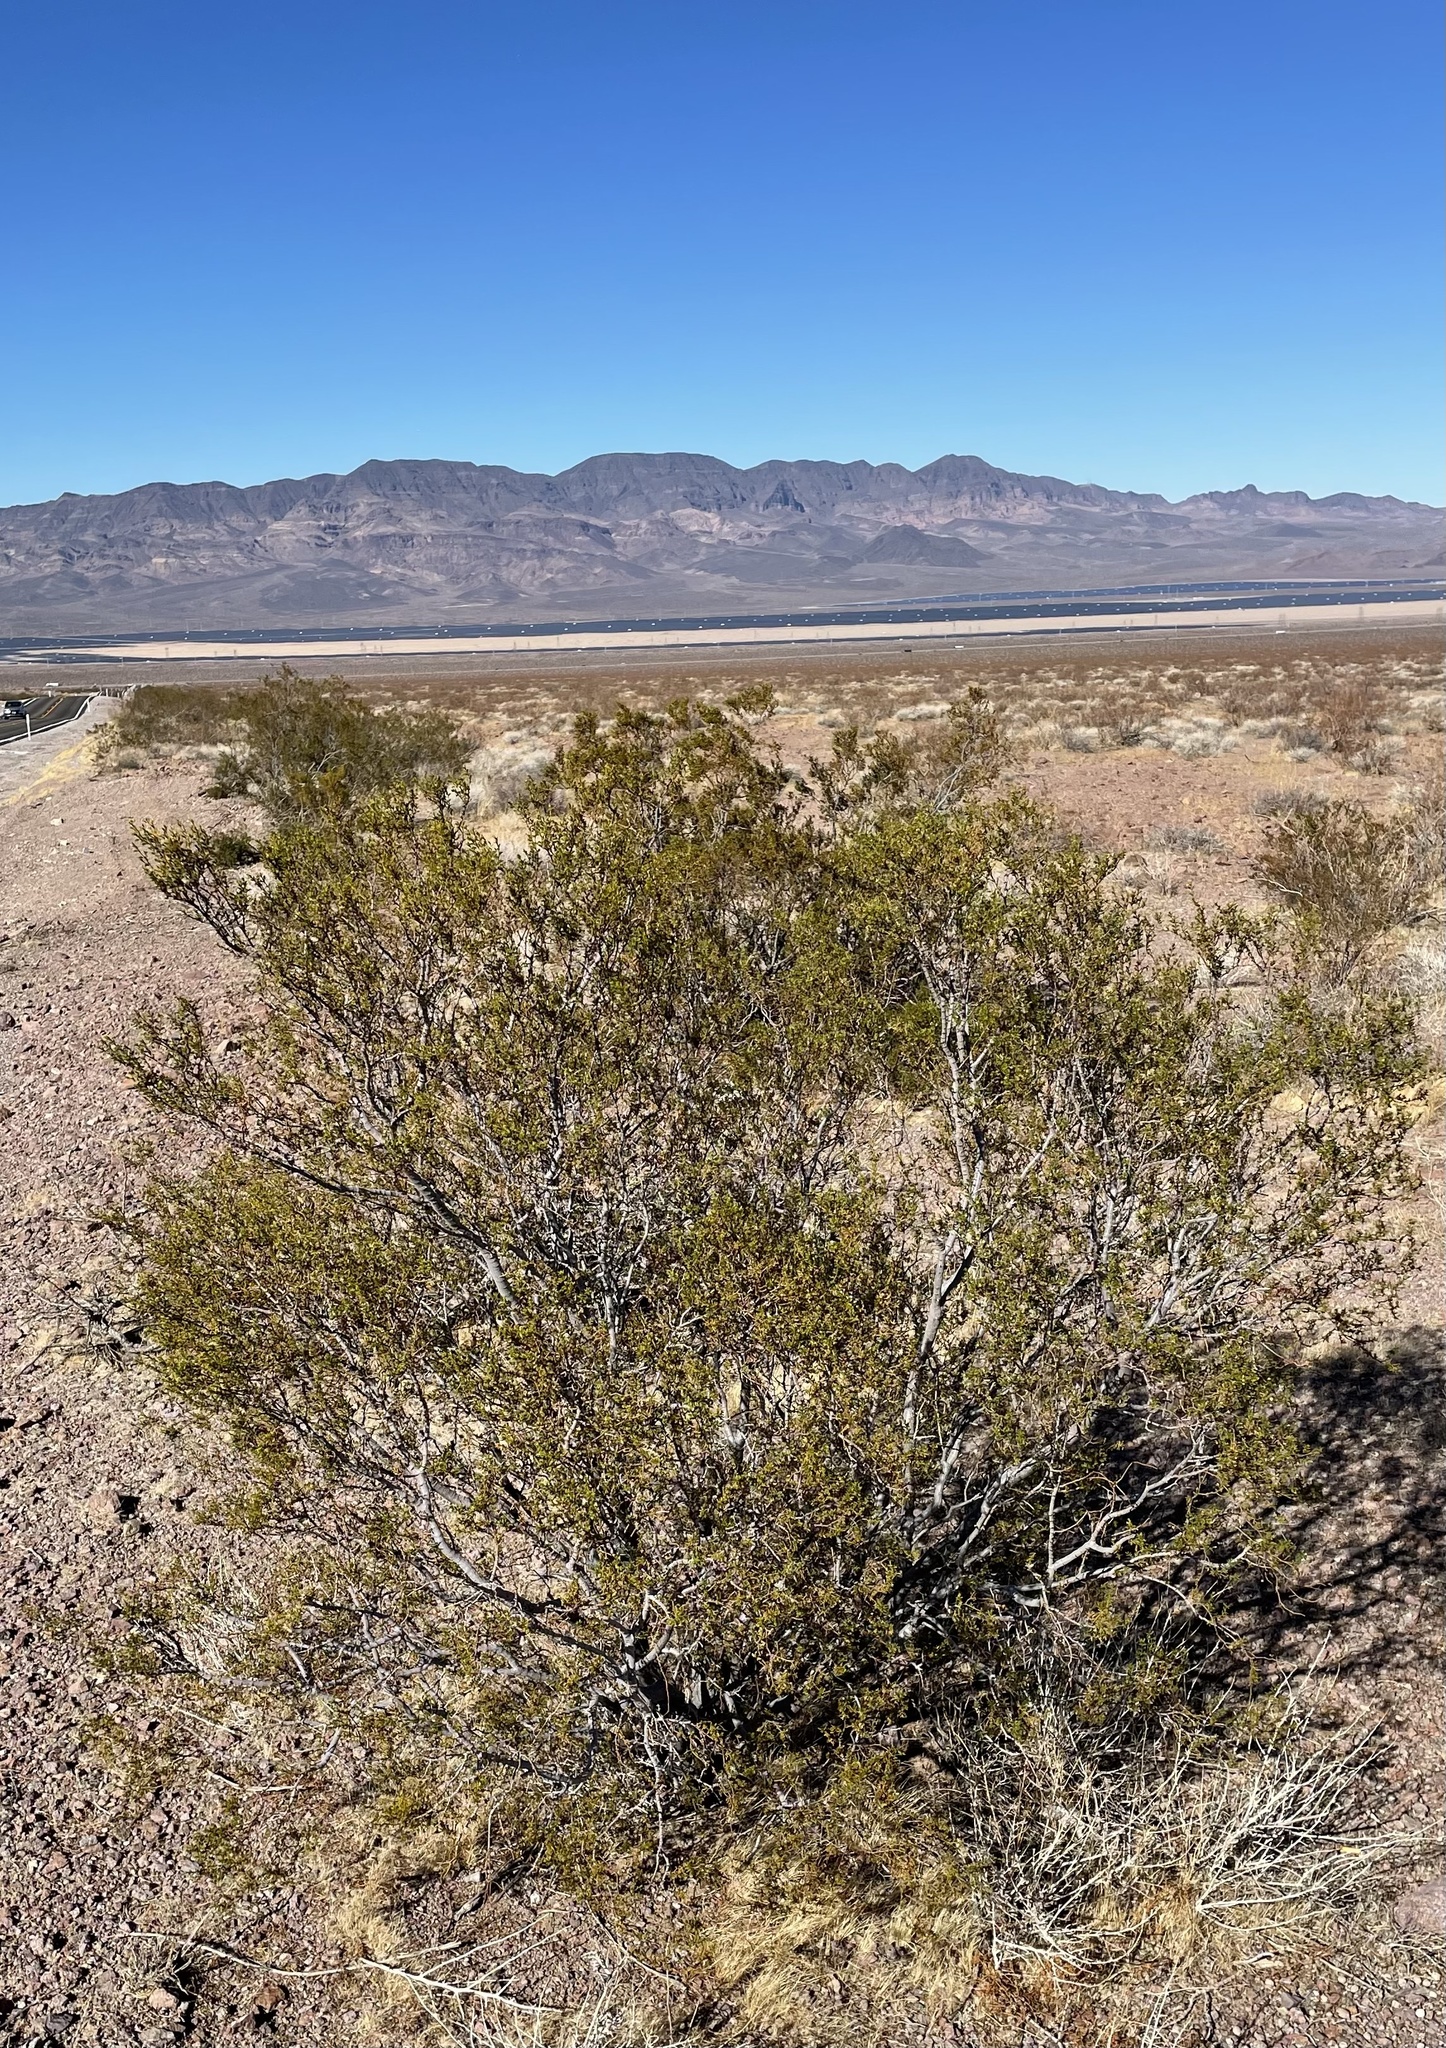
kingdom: Animalia
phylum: Arthropoda
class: Insecta
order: Diptera
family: Cecidomyiidae
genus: Asphondylia
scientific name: Asphondylia resinosa
